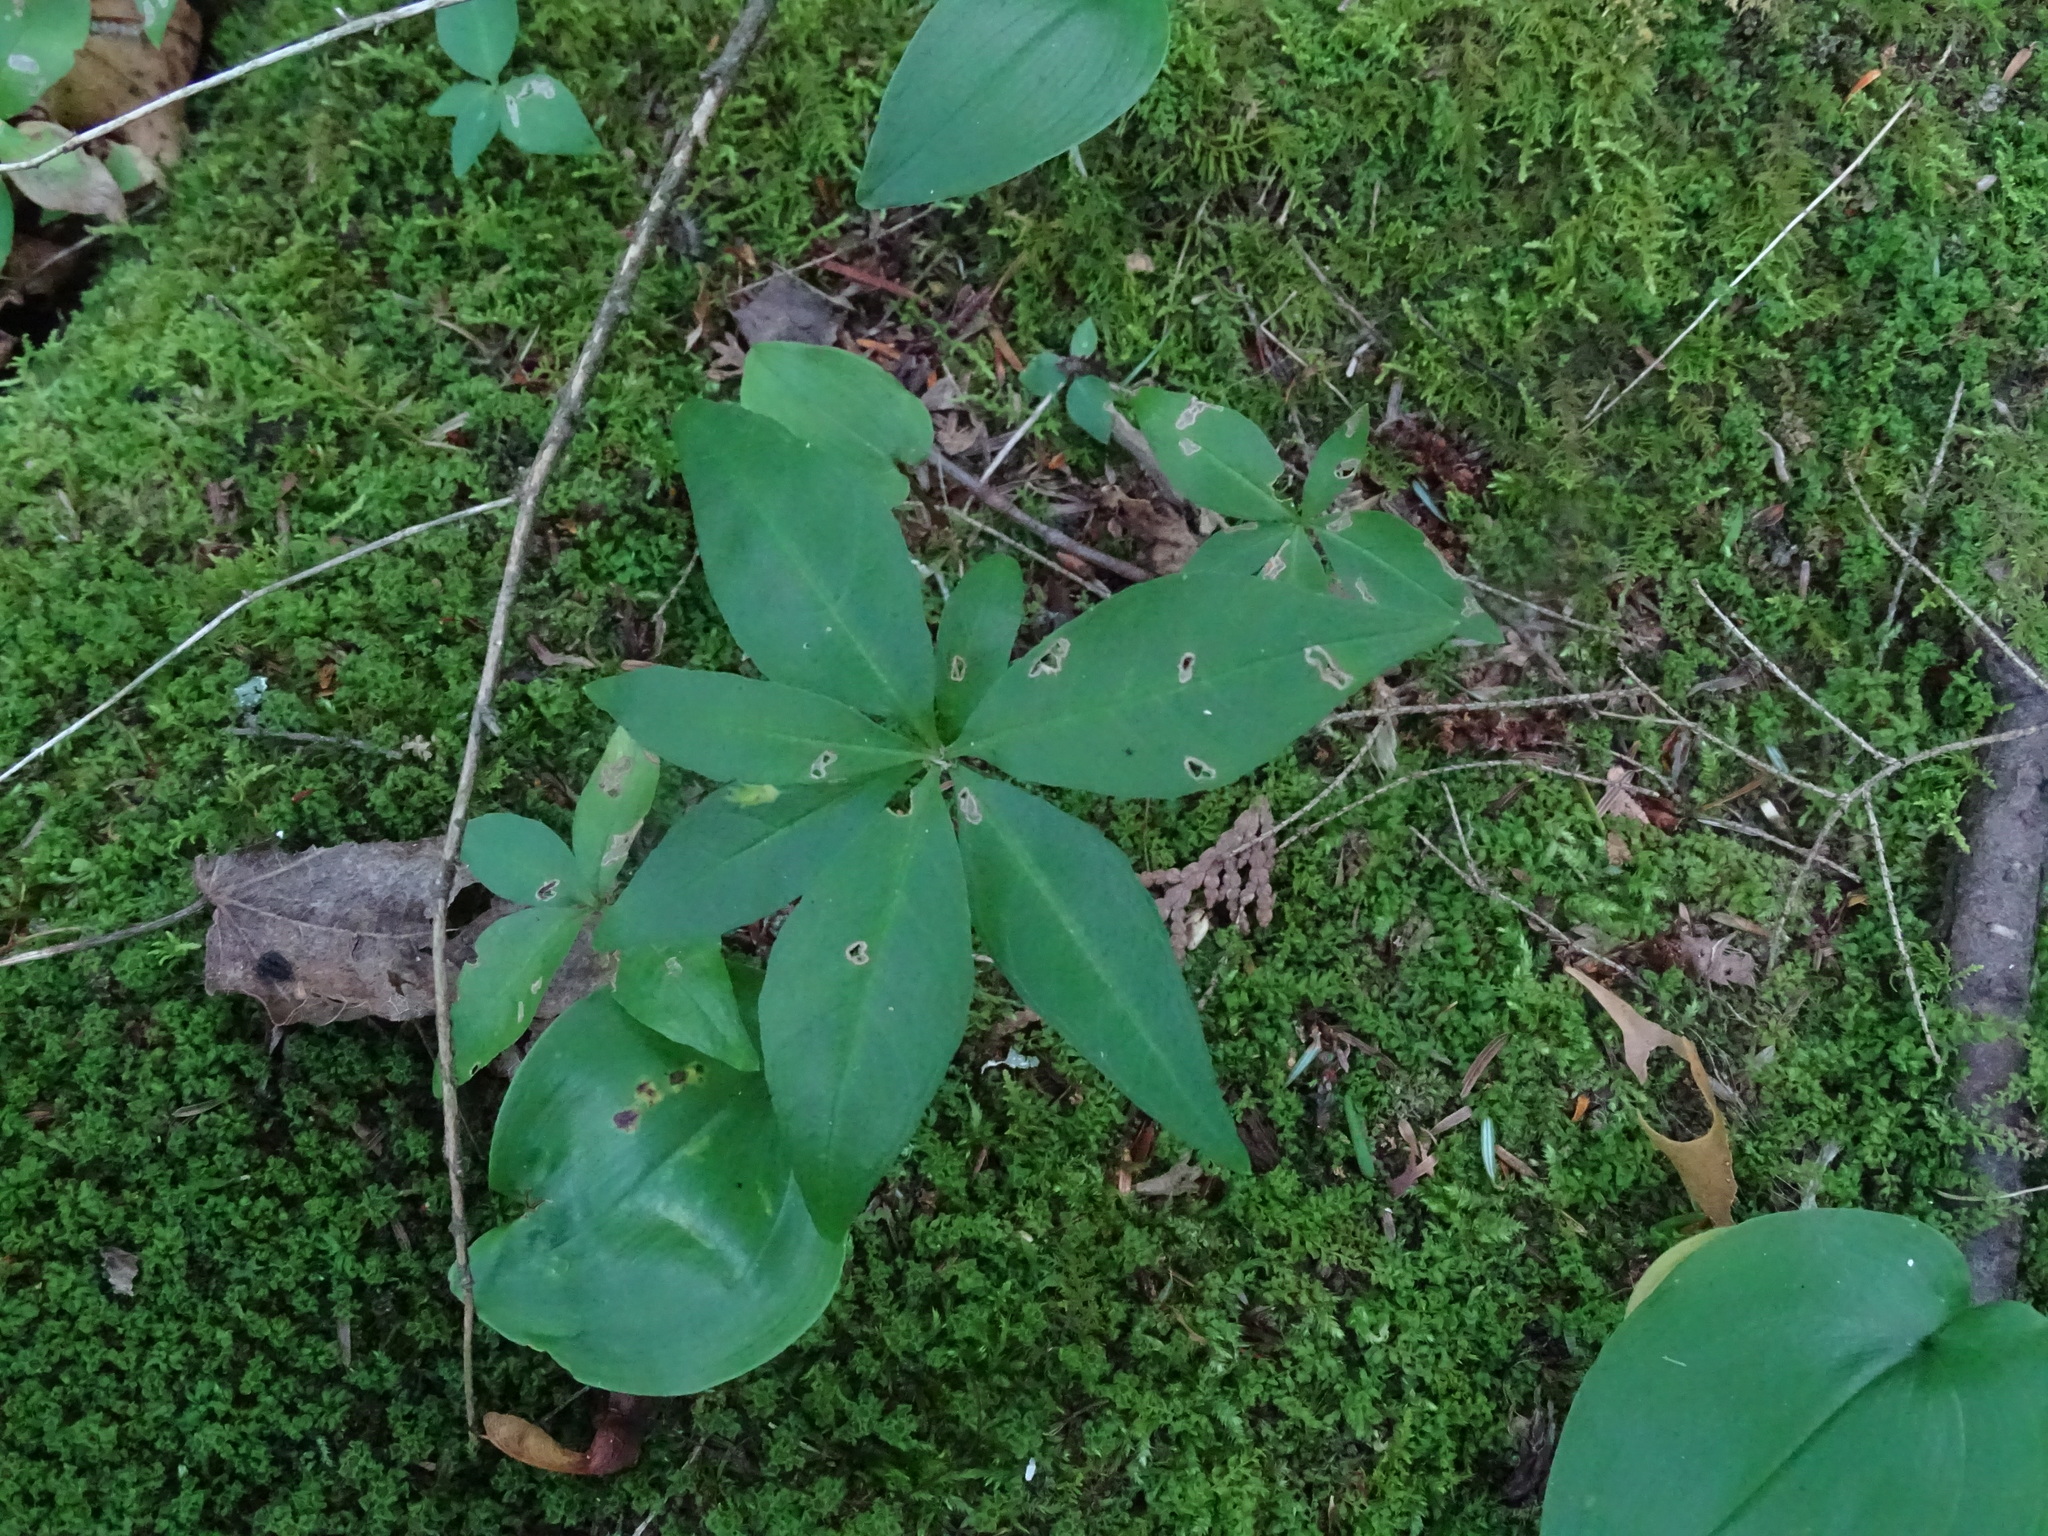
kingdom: Plantae
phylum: Tracheophyta
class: Magnoliopsida
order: Ericales
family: Primulaceae
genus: Lysimachia
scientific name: Lysimachia borealis
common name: American starflower
